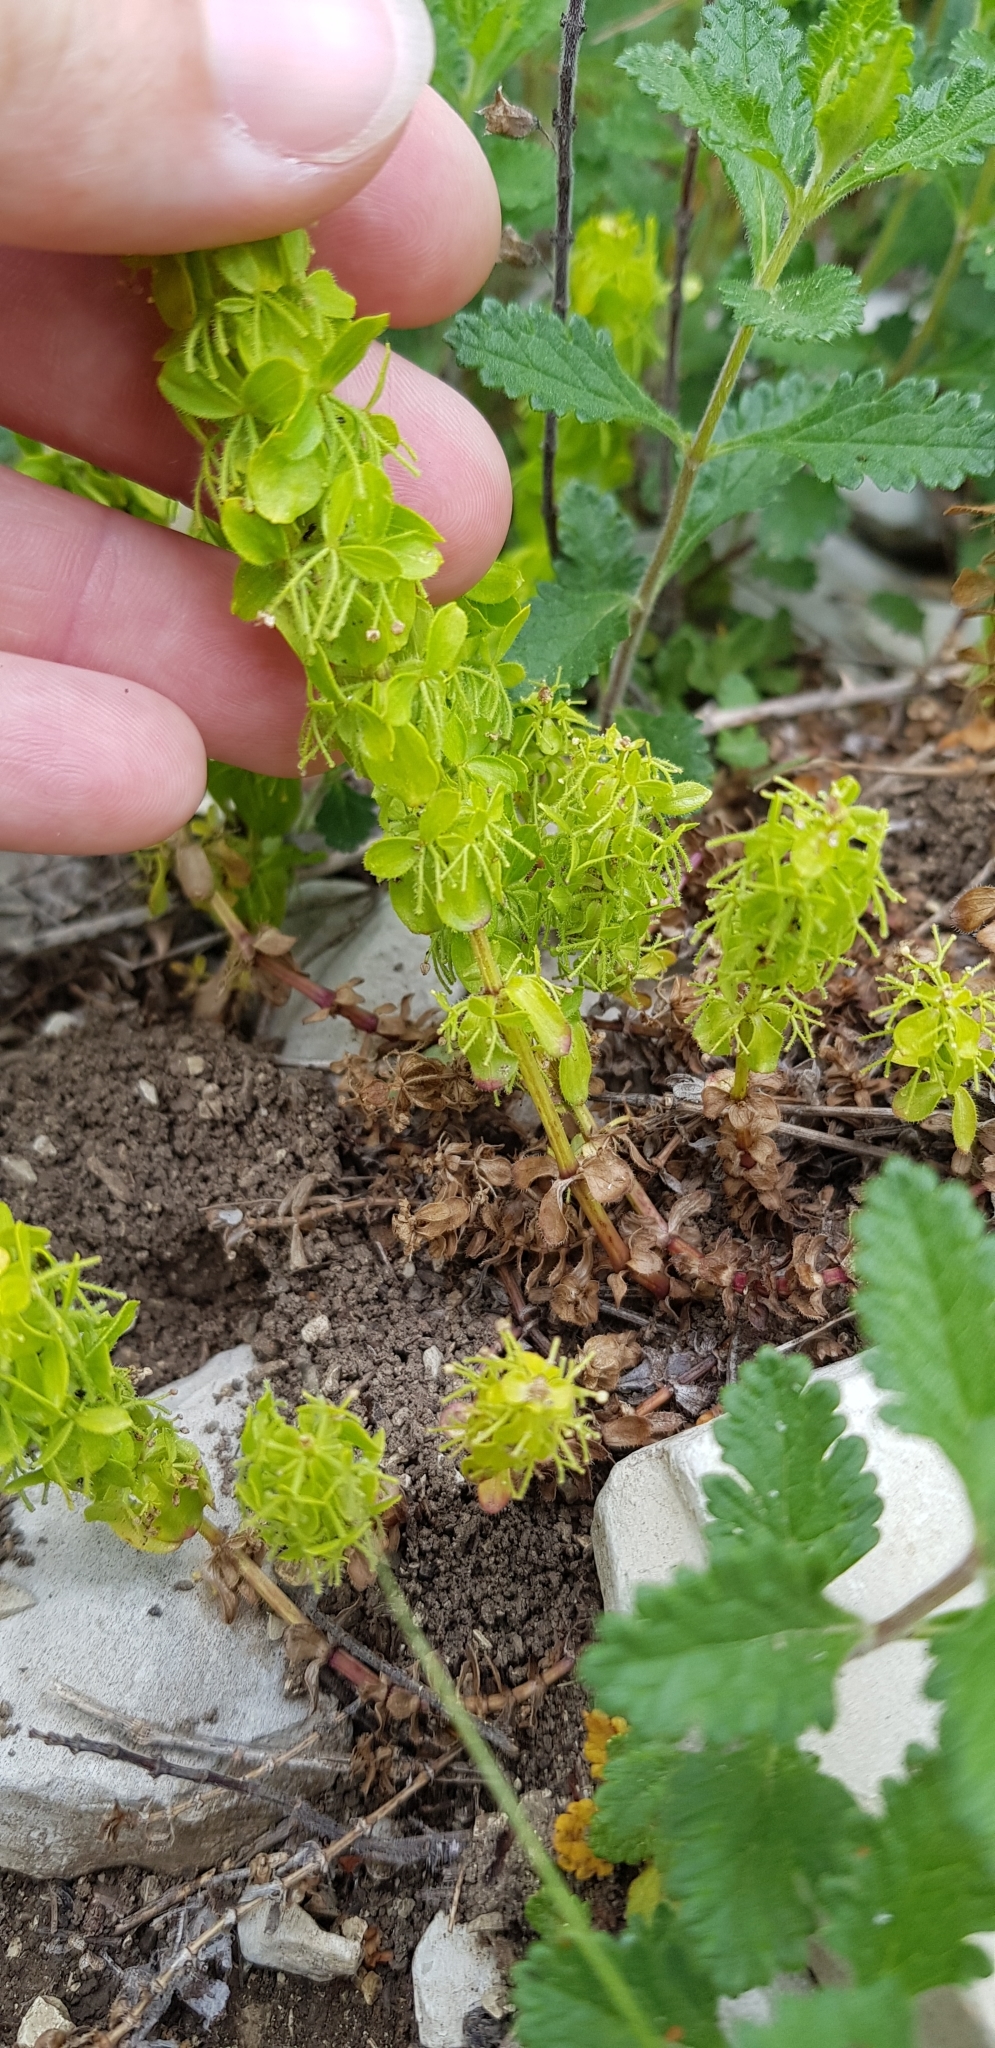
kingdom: Plantae
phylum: Tracheophyta
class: Magnoliopsida
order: Gentianales
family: Rubiaceae
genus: Cruciata
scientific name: Cruciata taurica
